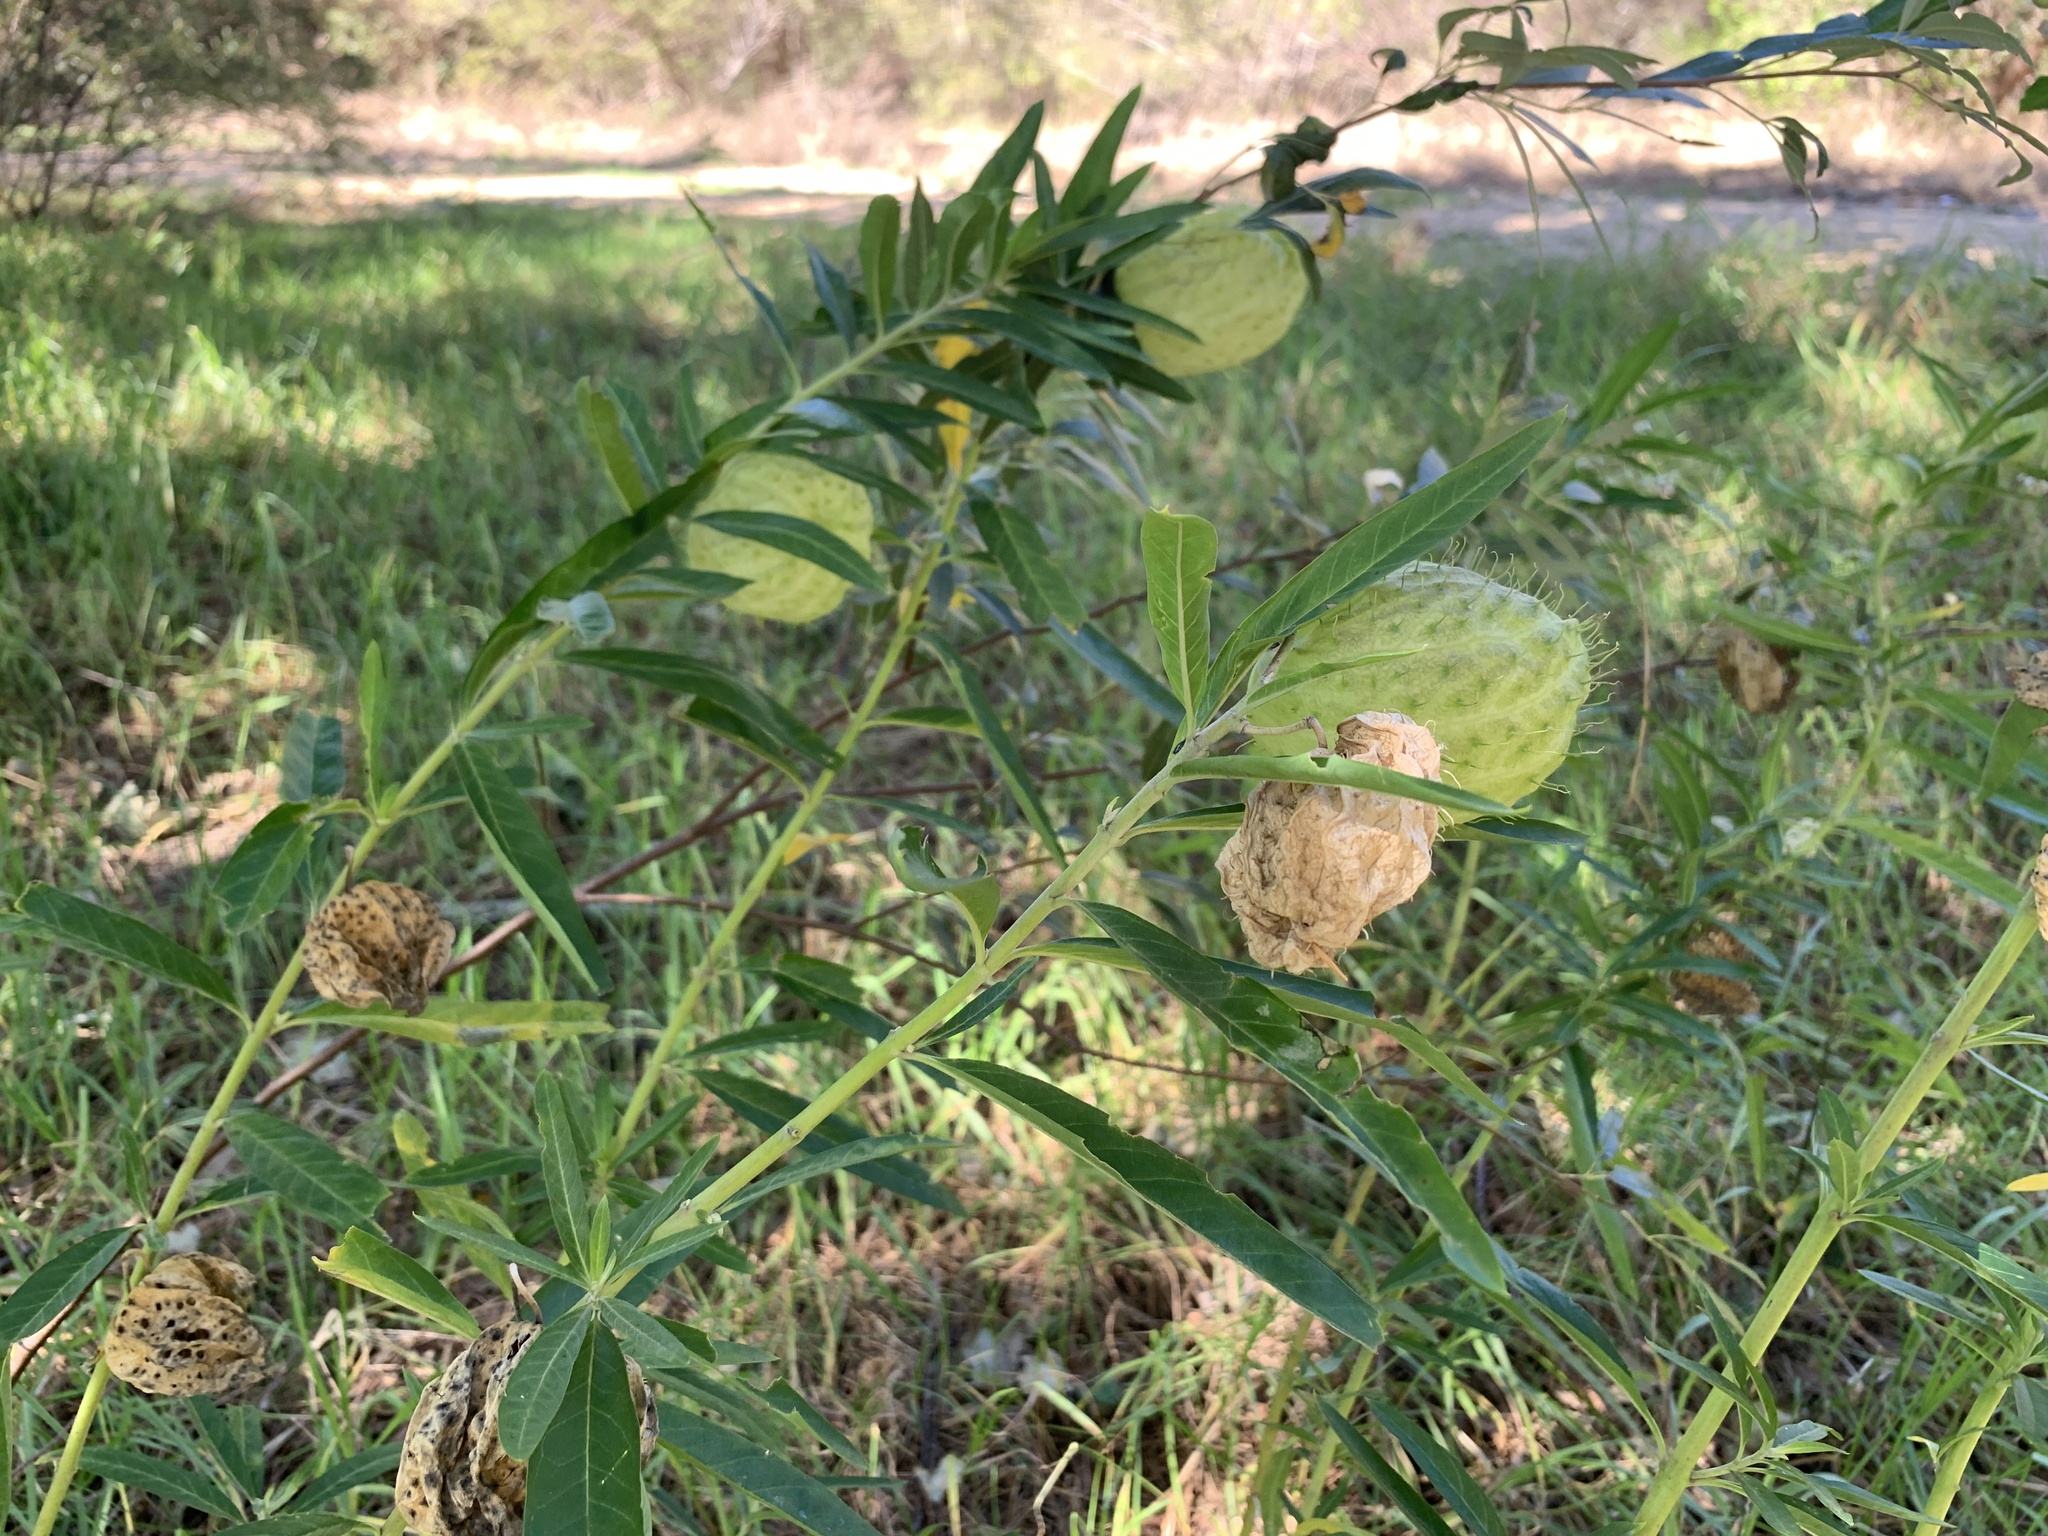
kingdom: Plantae
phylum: Tracheophyta
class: Magnoliopsida
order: Gentianales
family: Apocynaceae
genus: Gomphocarpus
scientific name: Gomphocarpus physocarpus
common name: Balloon cotton bush
